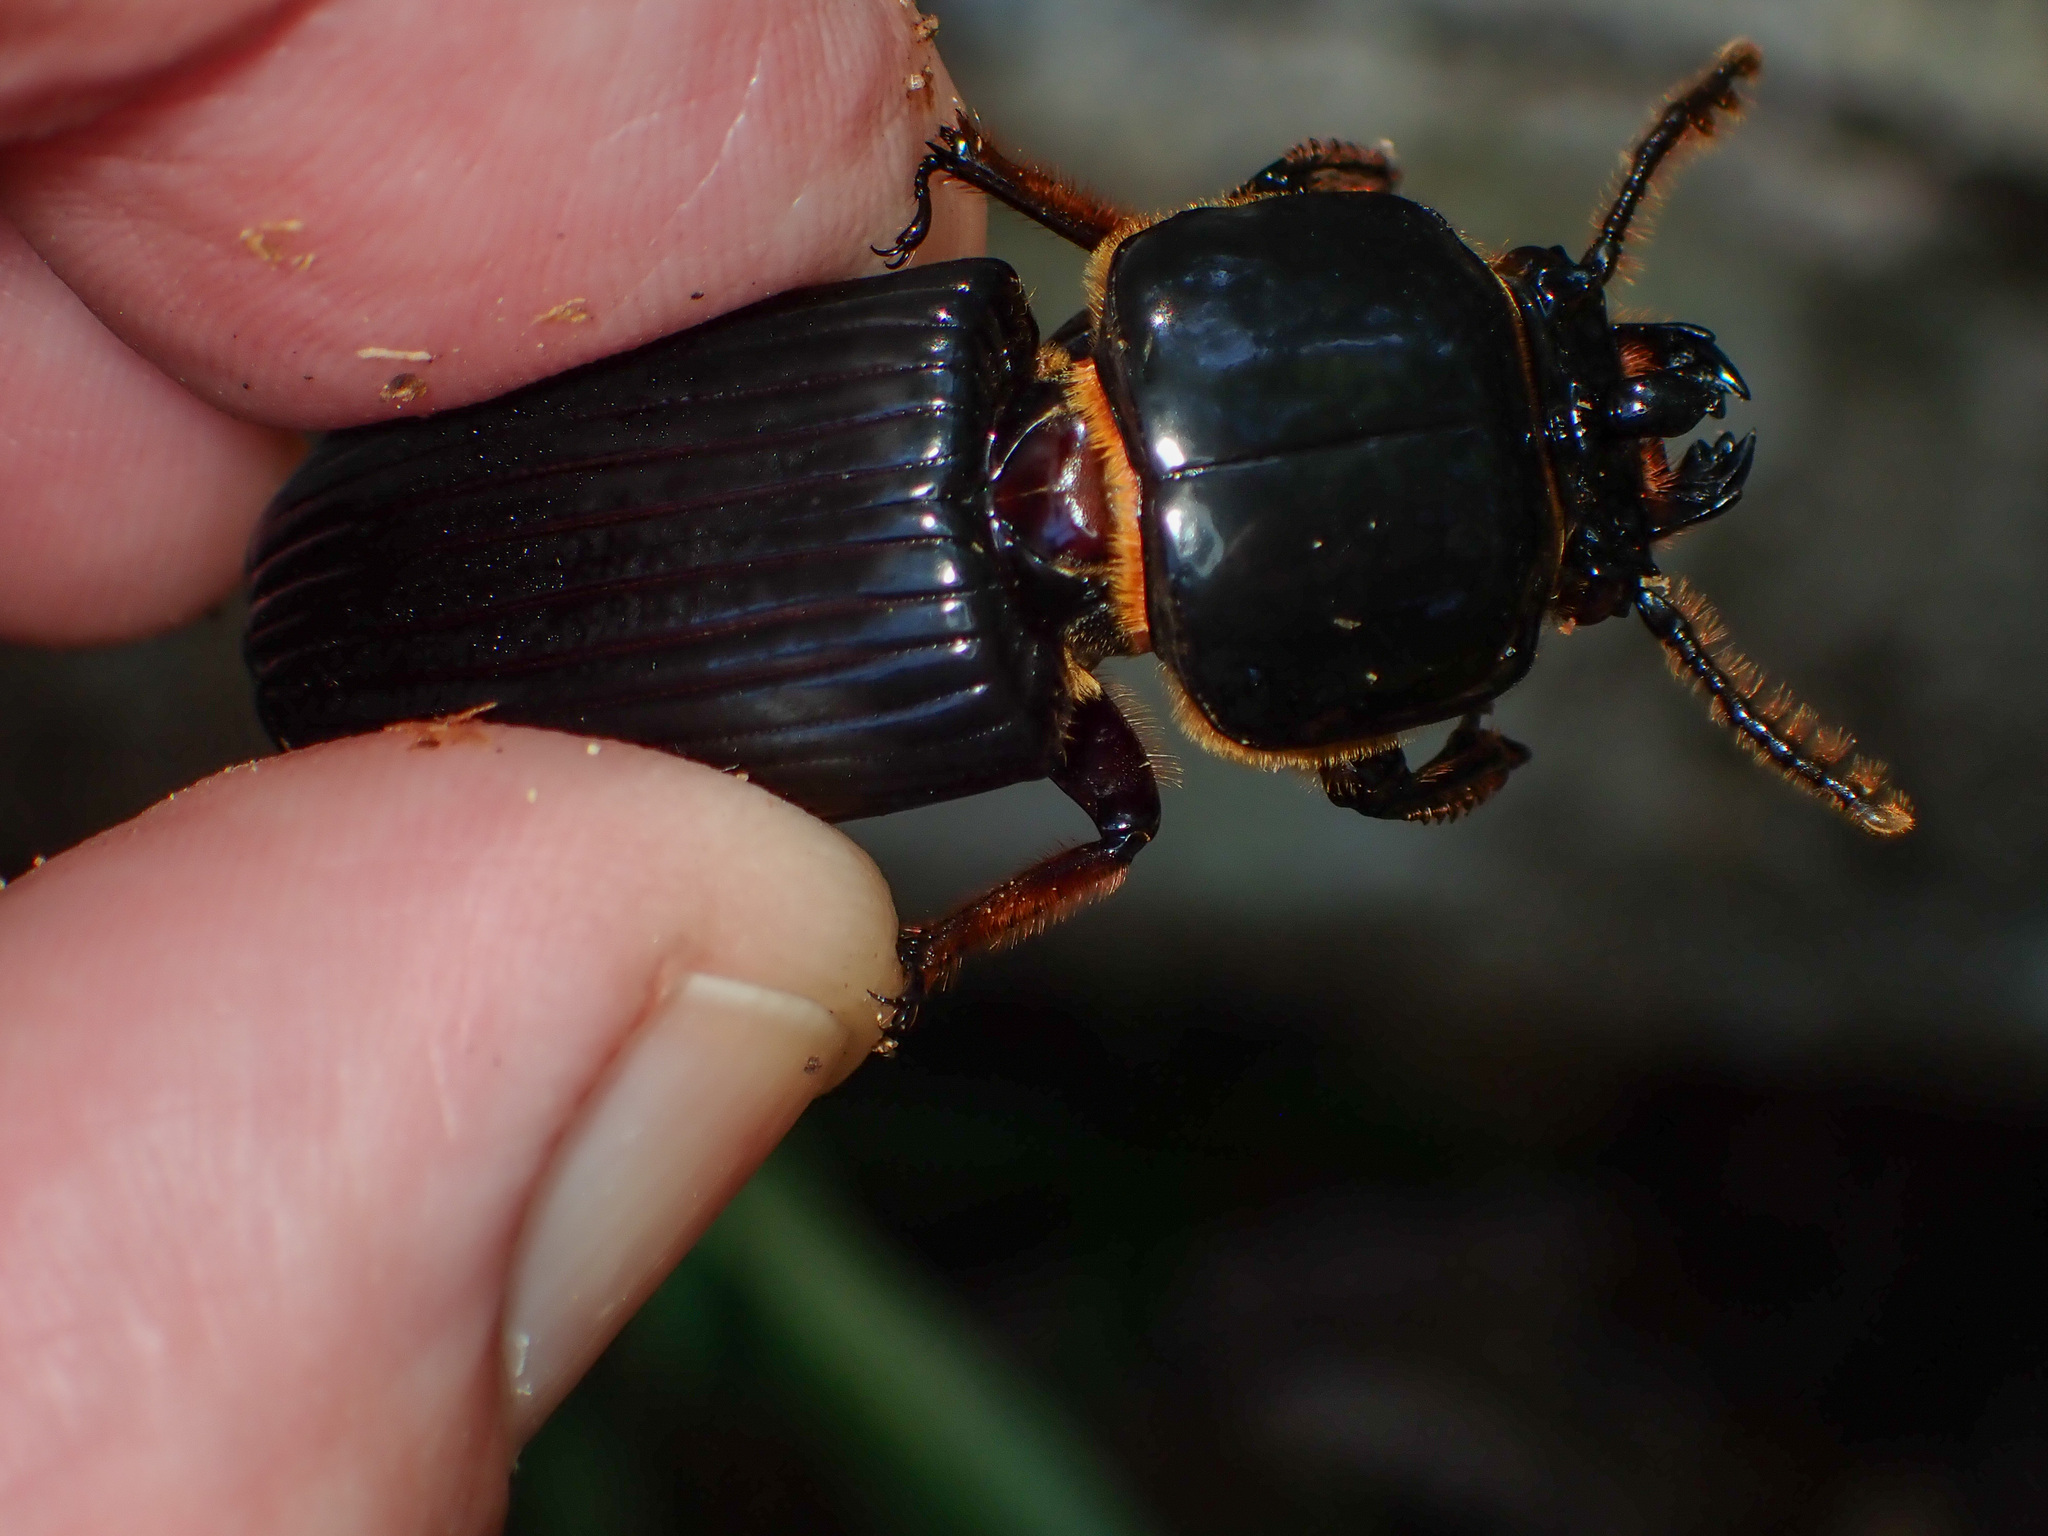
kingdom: Animalia
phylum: Arthropoda
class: Insecta
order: Coleoptera
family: Passalidae
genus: Odontotaenius
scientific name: Odontotaenius disjunctus
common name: Patent leather beetle
